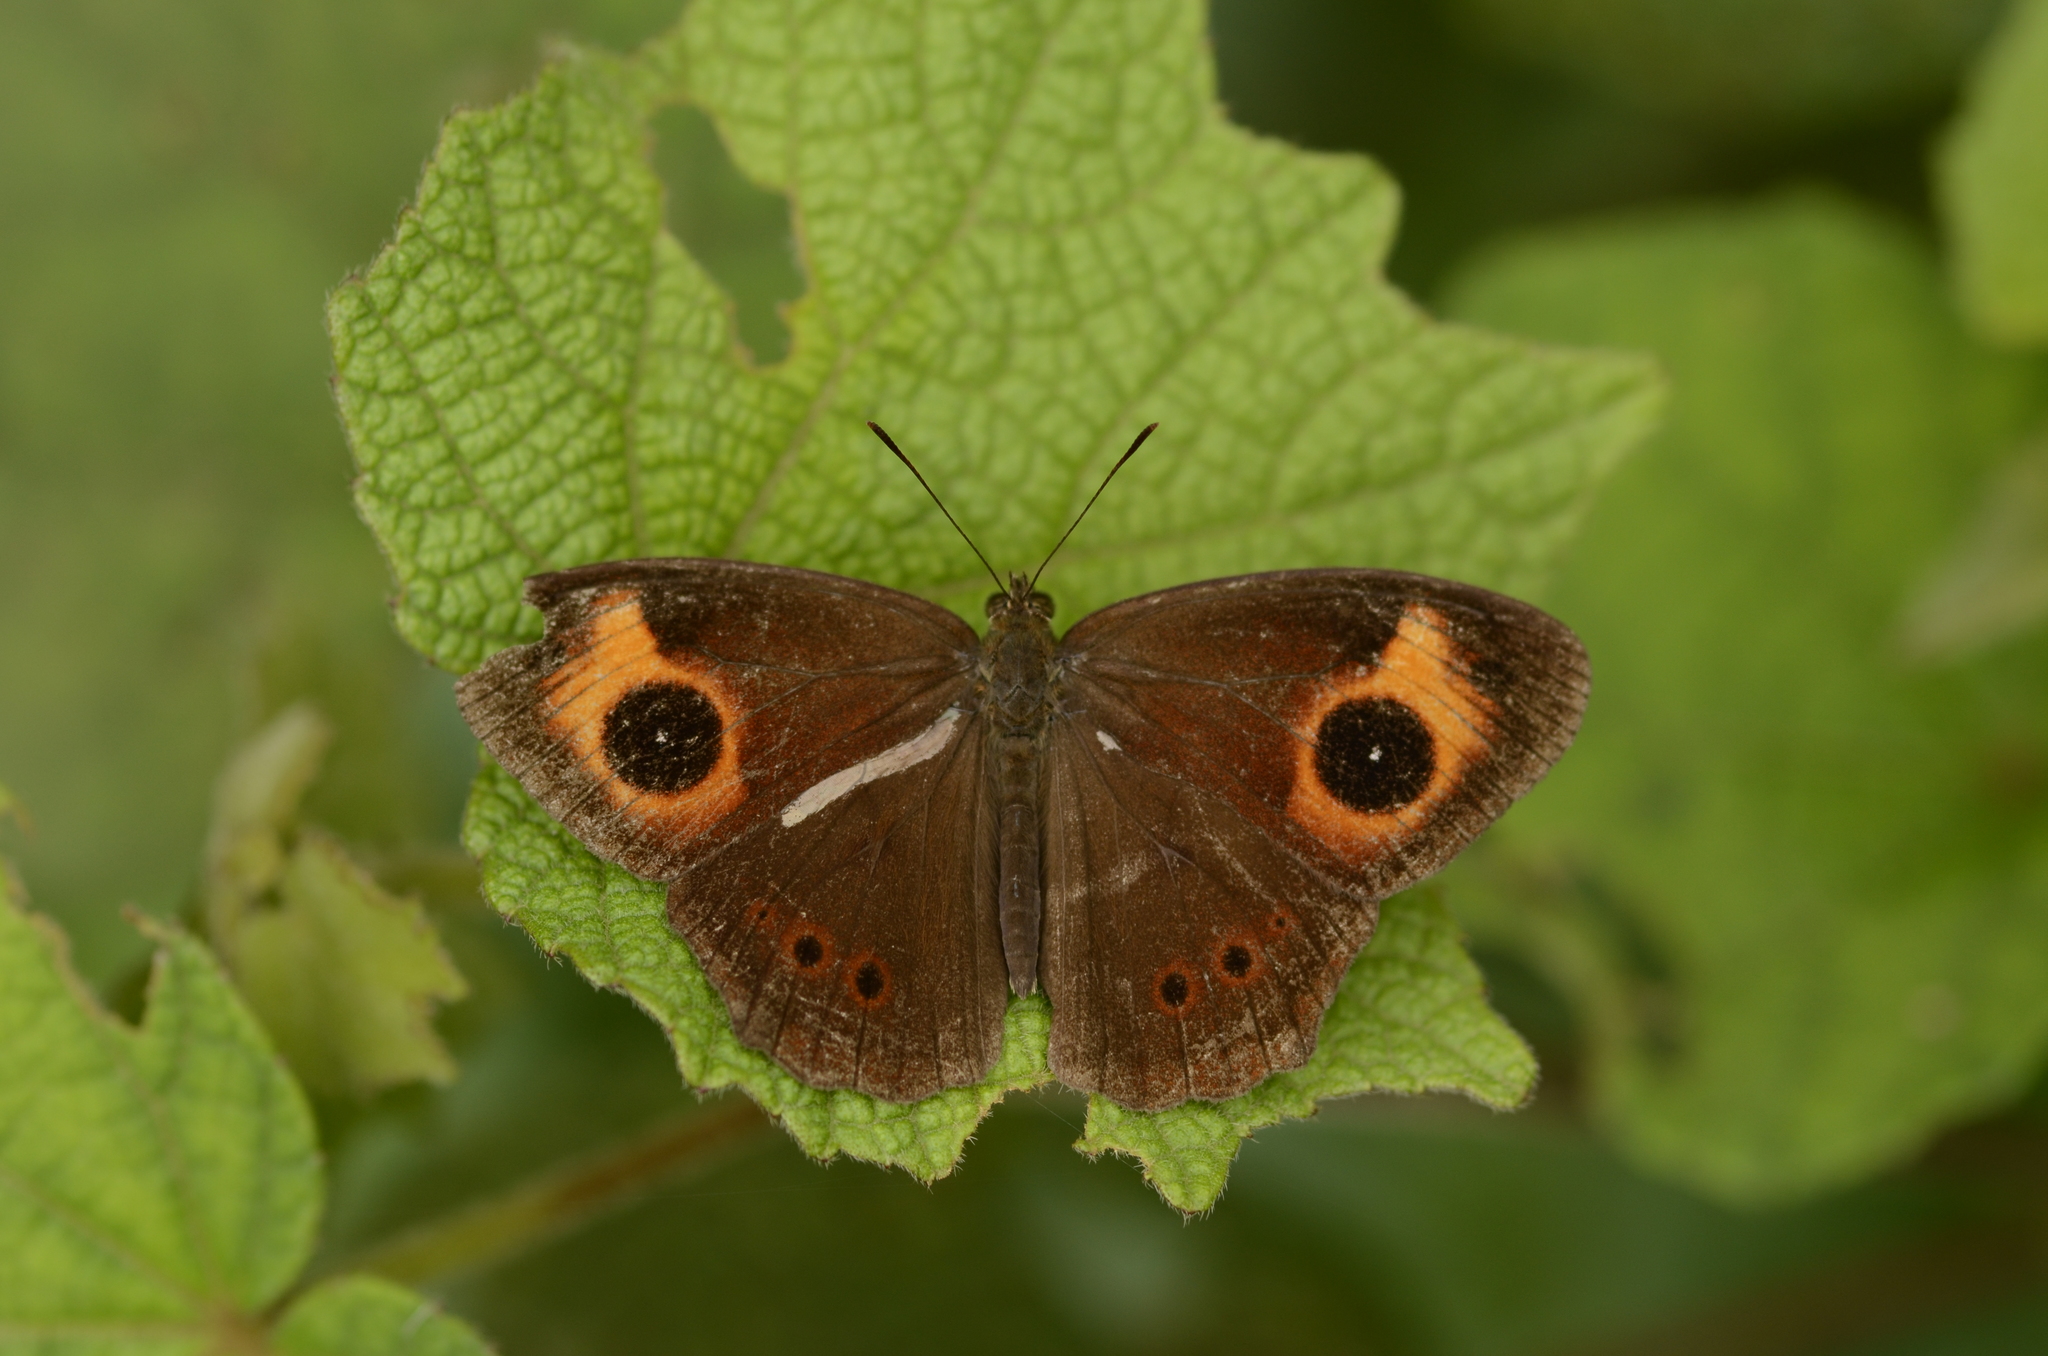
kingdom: Animalia
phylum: Arthropoda
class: Insecta
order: Lepidoptera
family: Nymphalidae
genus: Mycalesis
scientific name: Mycalesis Telinga oculus
